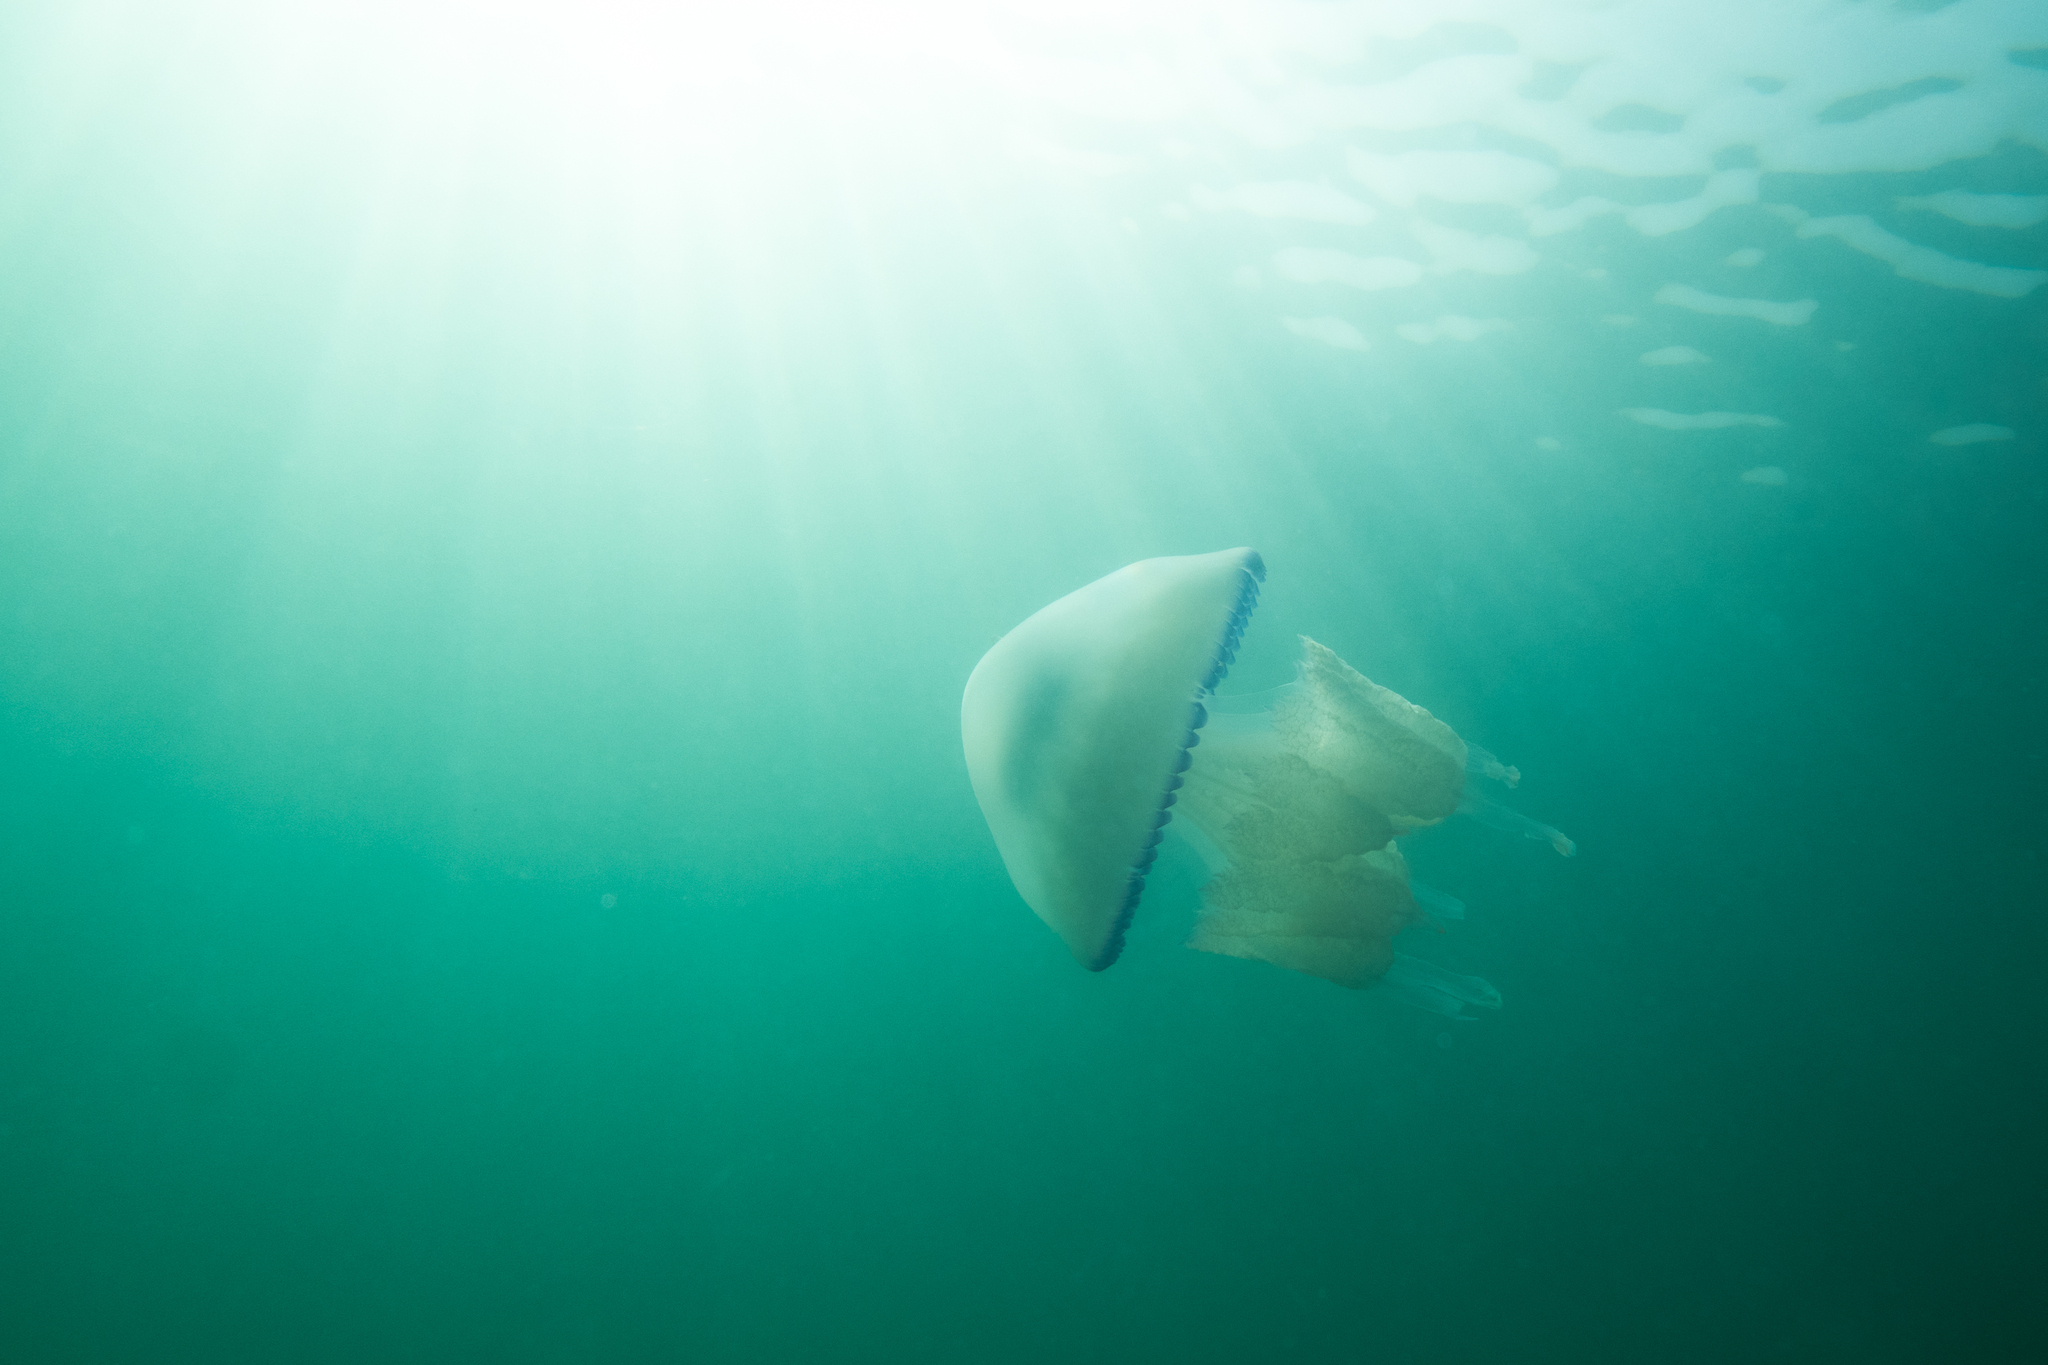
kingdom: Animalia
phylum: Cnidaria
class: Scyphozoa
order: Rhizostomeae
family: Rhizostomatidae
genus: Rhizostoma
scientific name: Rhizostoma pulmo
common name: Barrel jellyfish
